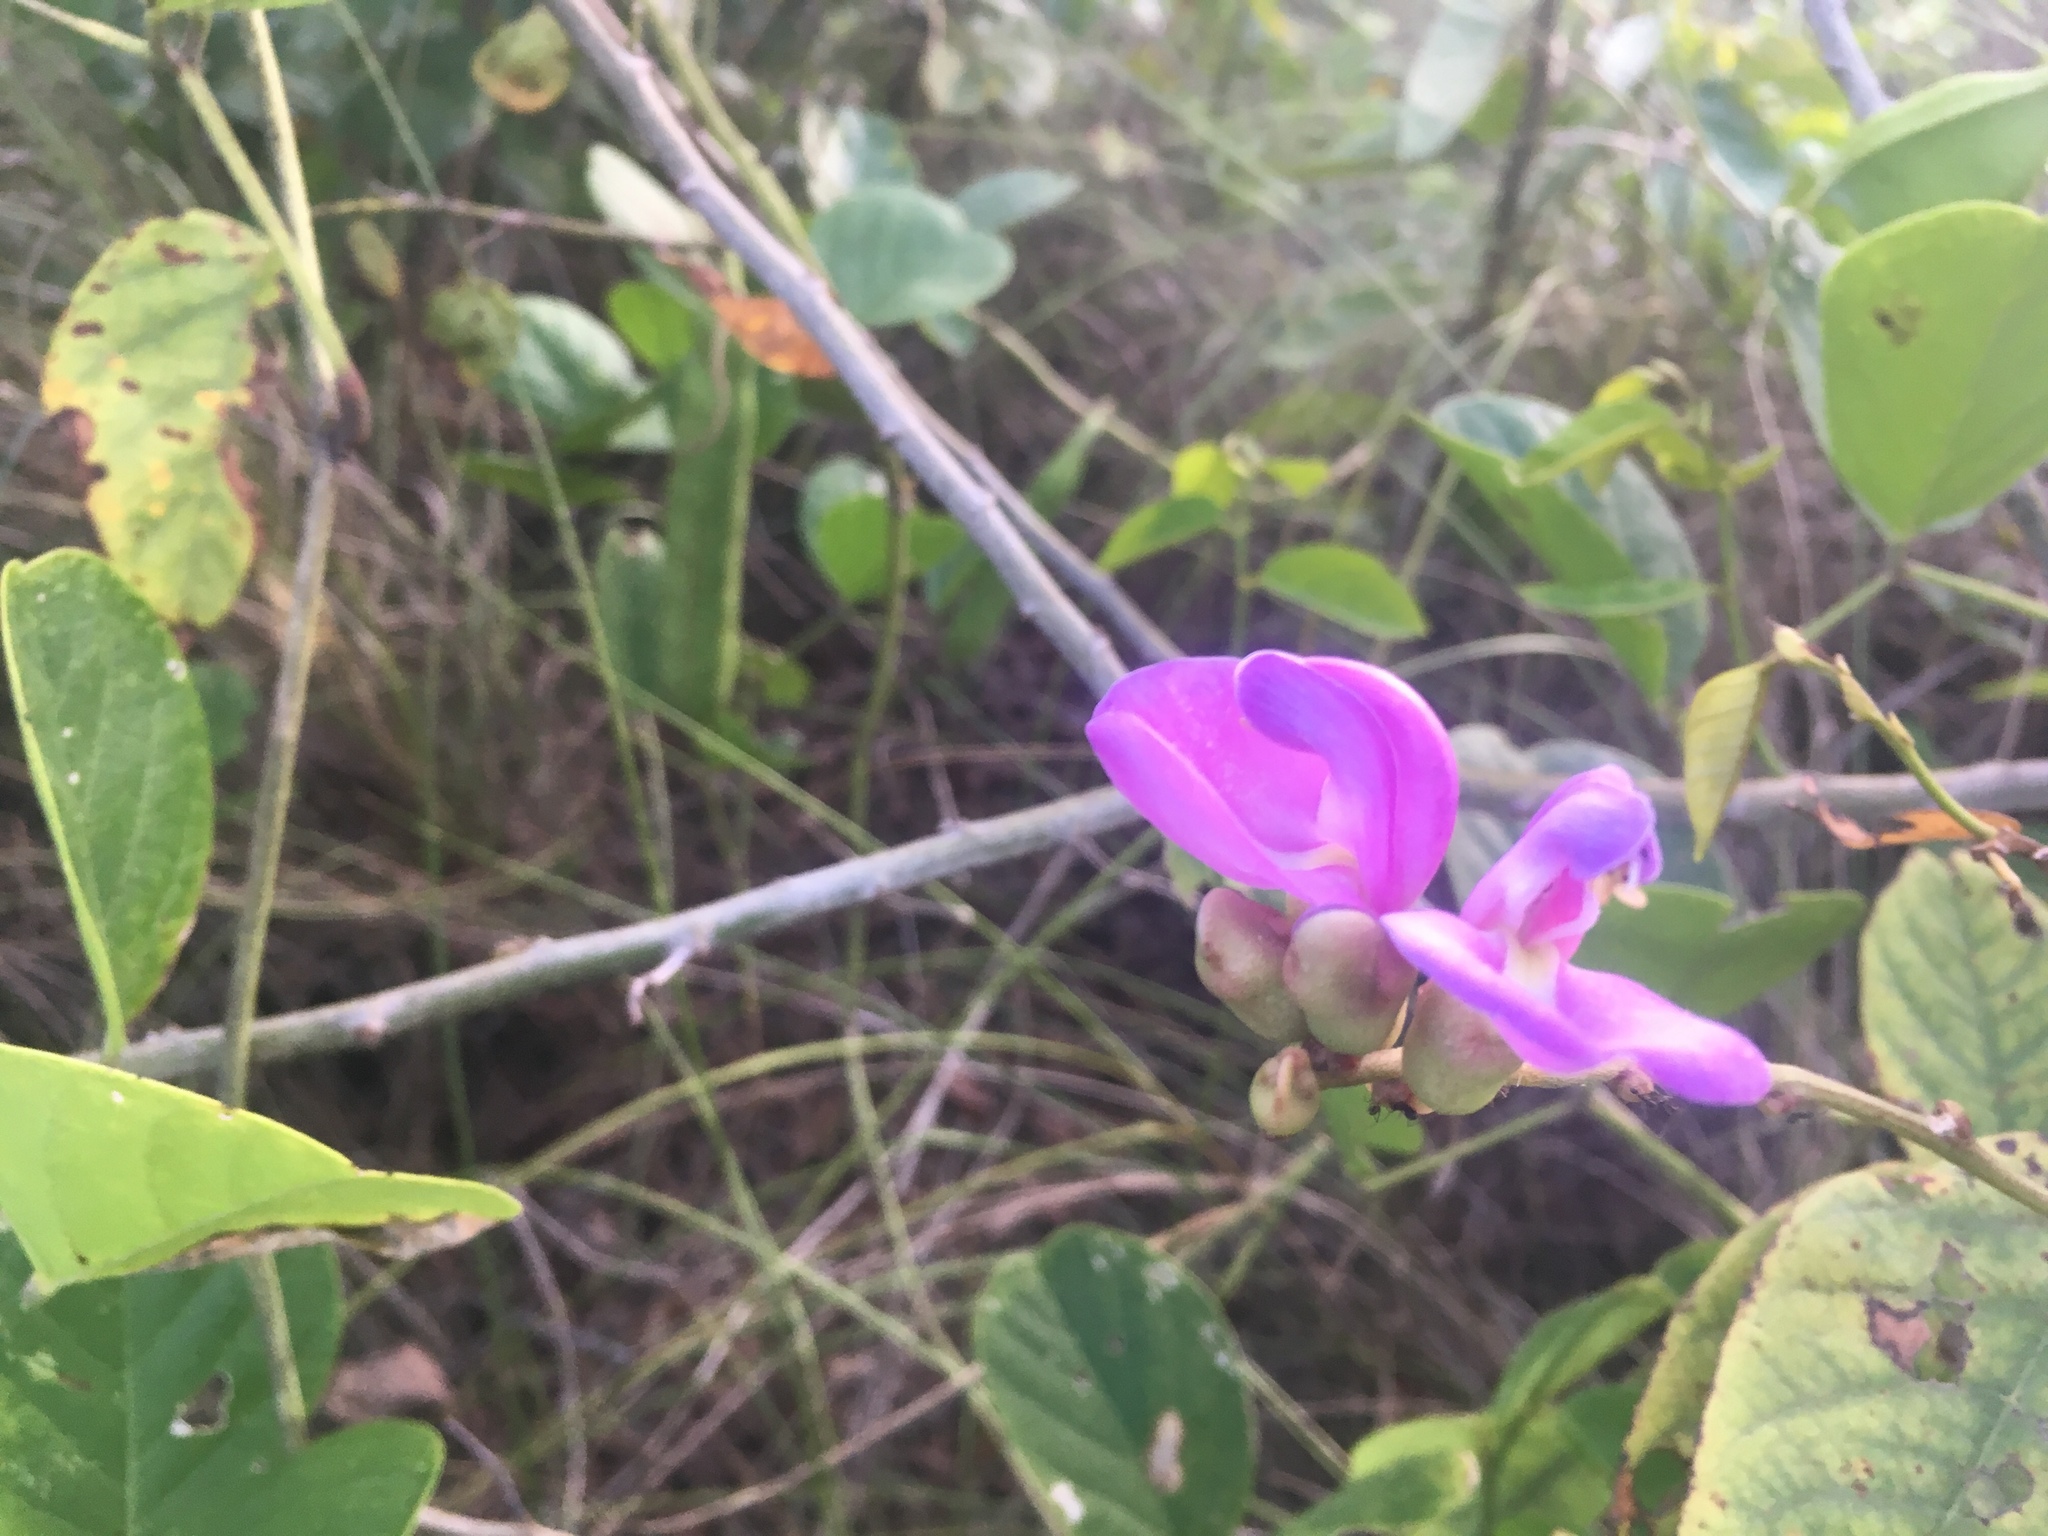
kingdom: Plantae
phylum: Tracheophyta
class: Magnoliopsida
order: Fabales
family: Fabaceae
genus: Canavalia
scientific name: Canavalia rosea
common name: Beach-bean
